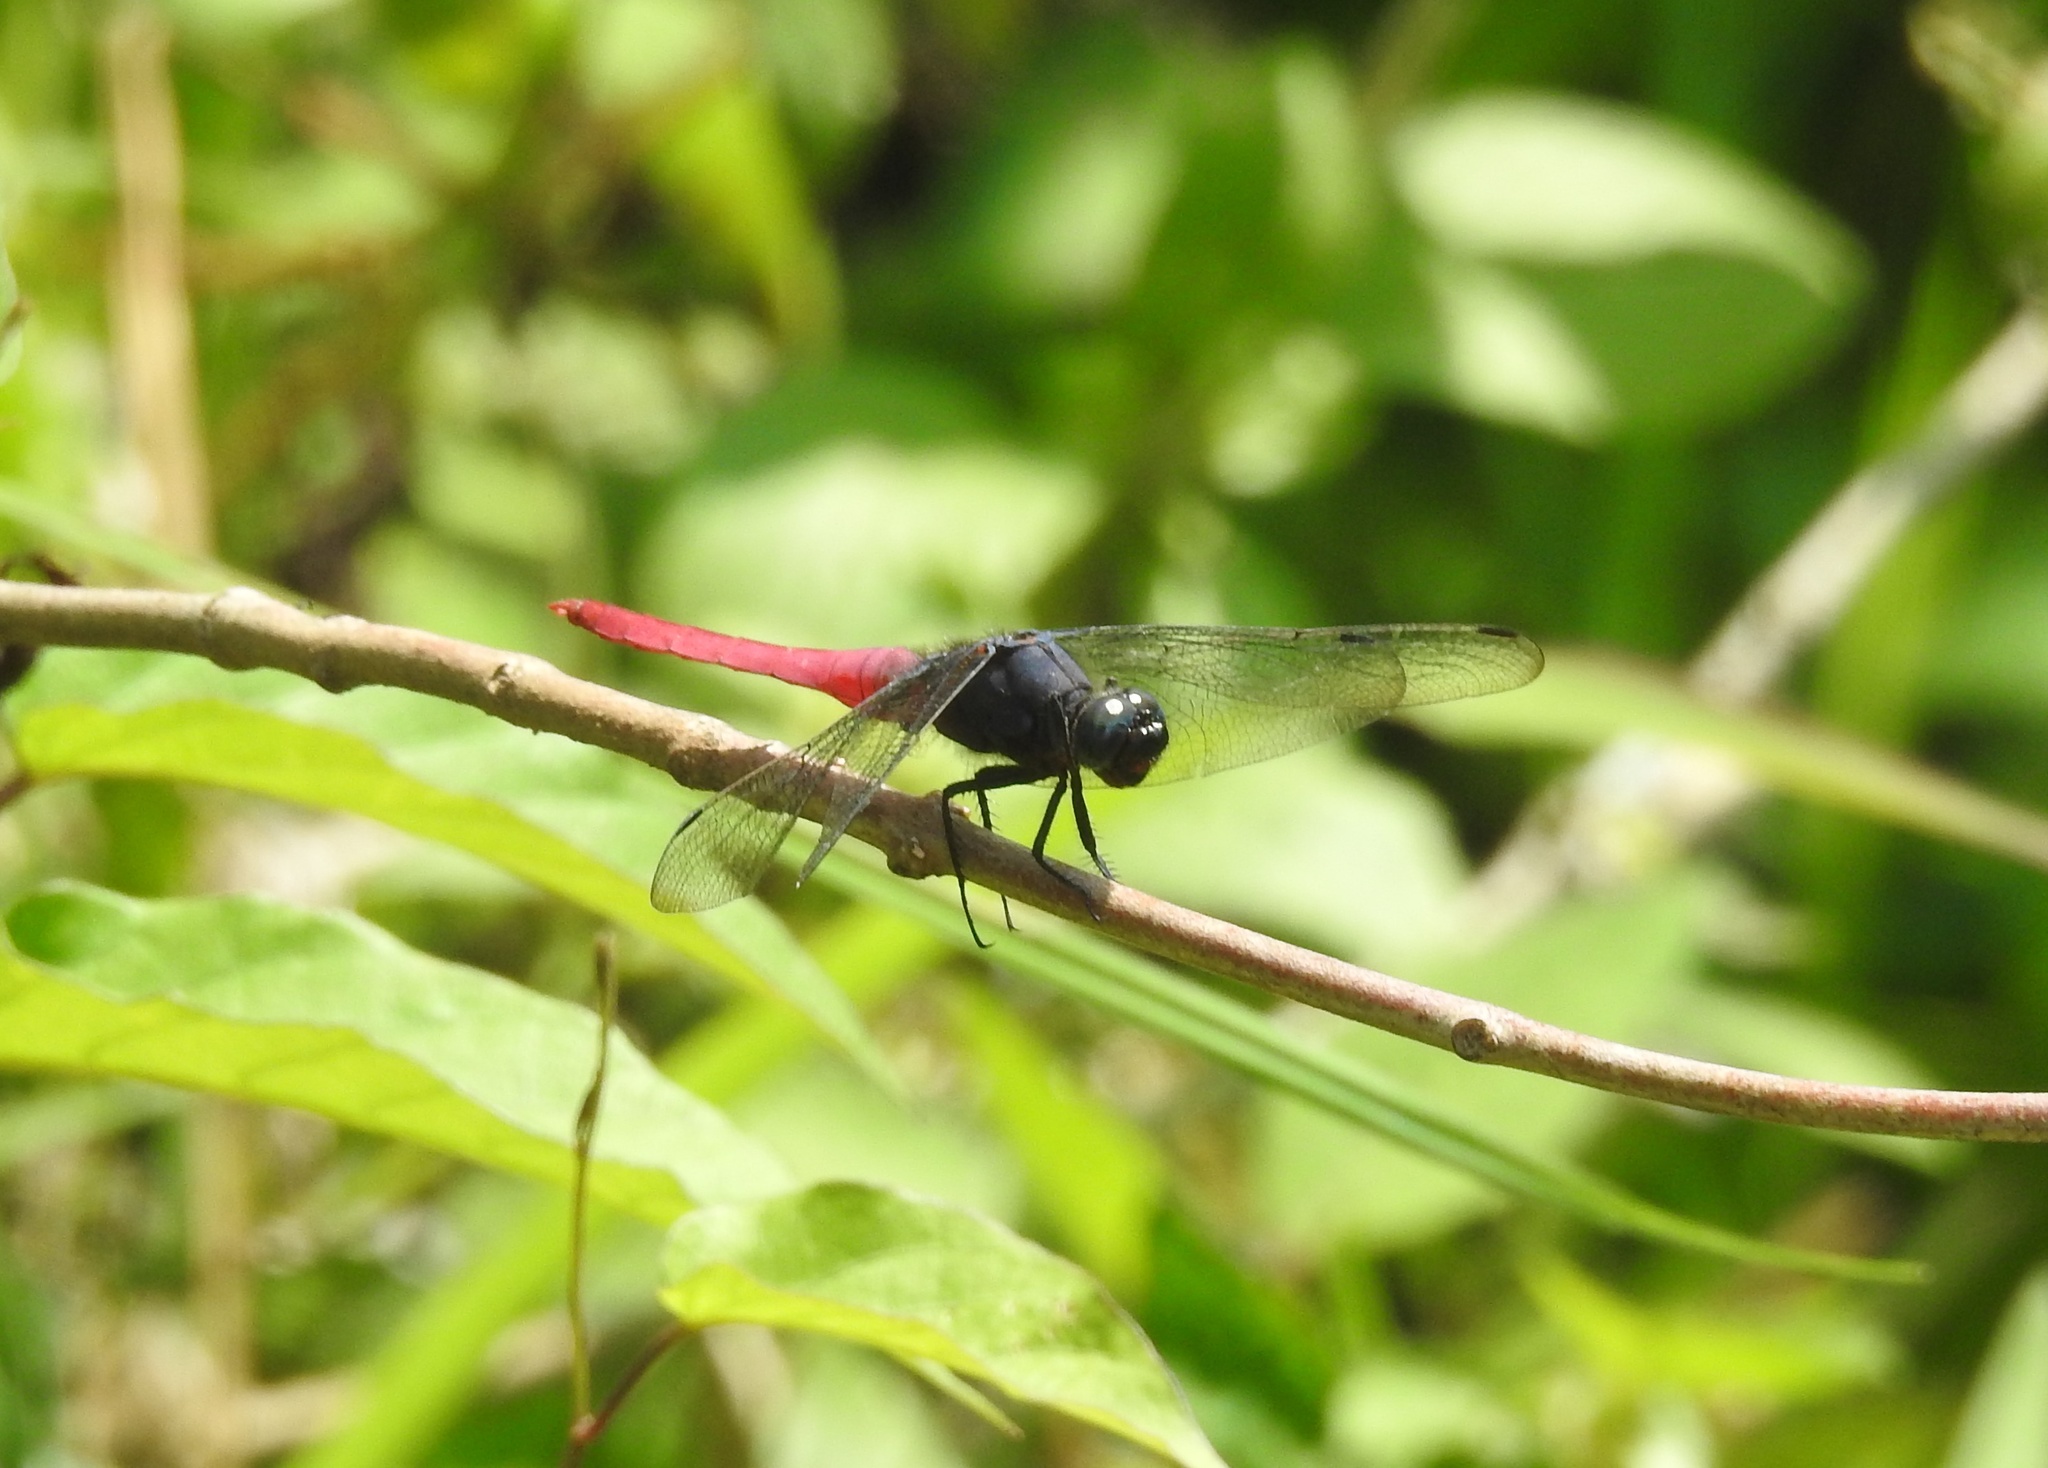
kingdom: Animalia
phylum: Arthropoda
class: Insecta
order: Odonata
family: Libellulidae
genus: Orthetrum
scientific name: Orthetrum pruinosum
